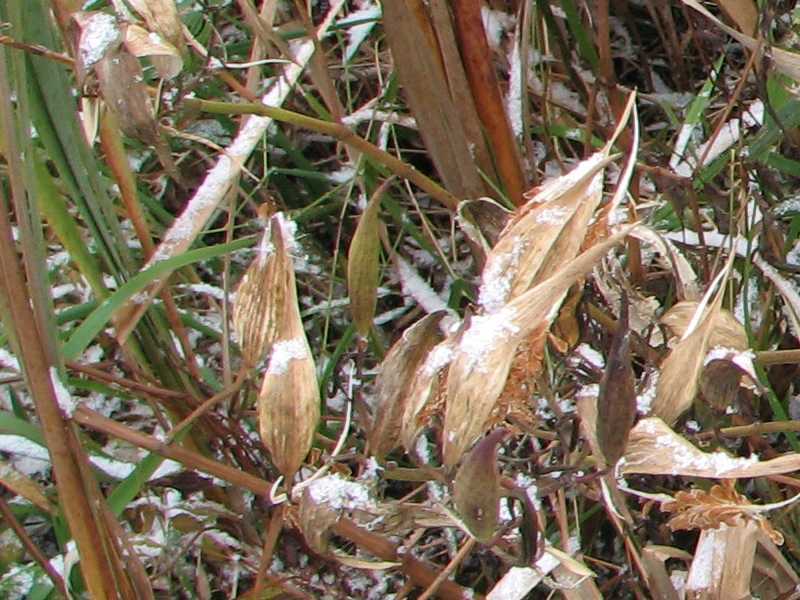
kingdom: Plantae
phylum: Tracheophyta
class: Magnoliopsida
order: Gentianales
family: Apocynaceae
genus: Asclepias
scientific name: Asclepias incarnata
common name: Swamp milkweed
